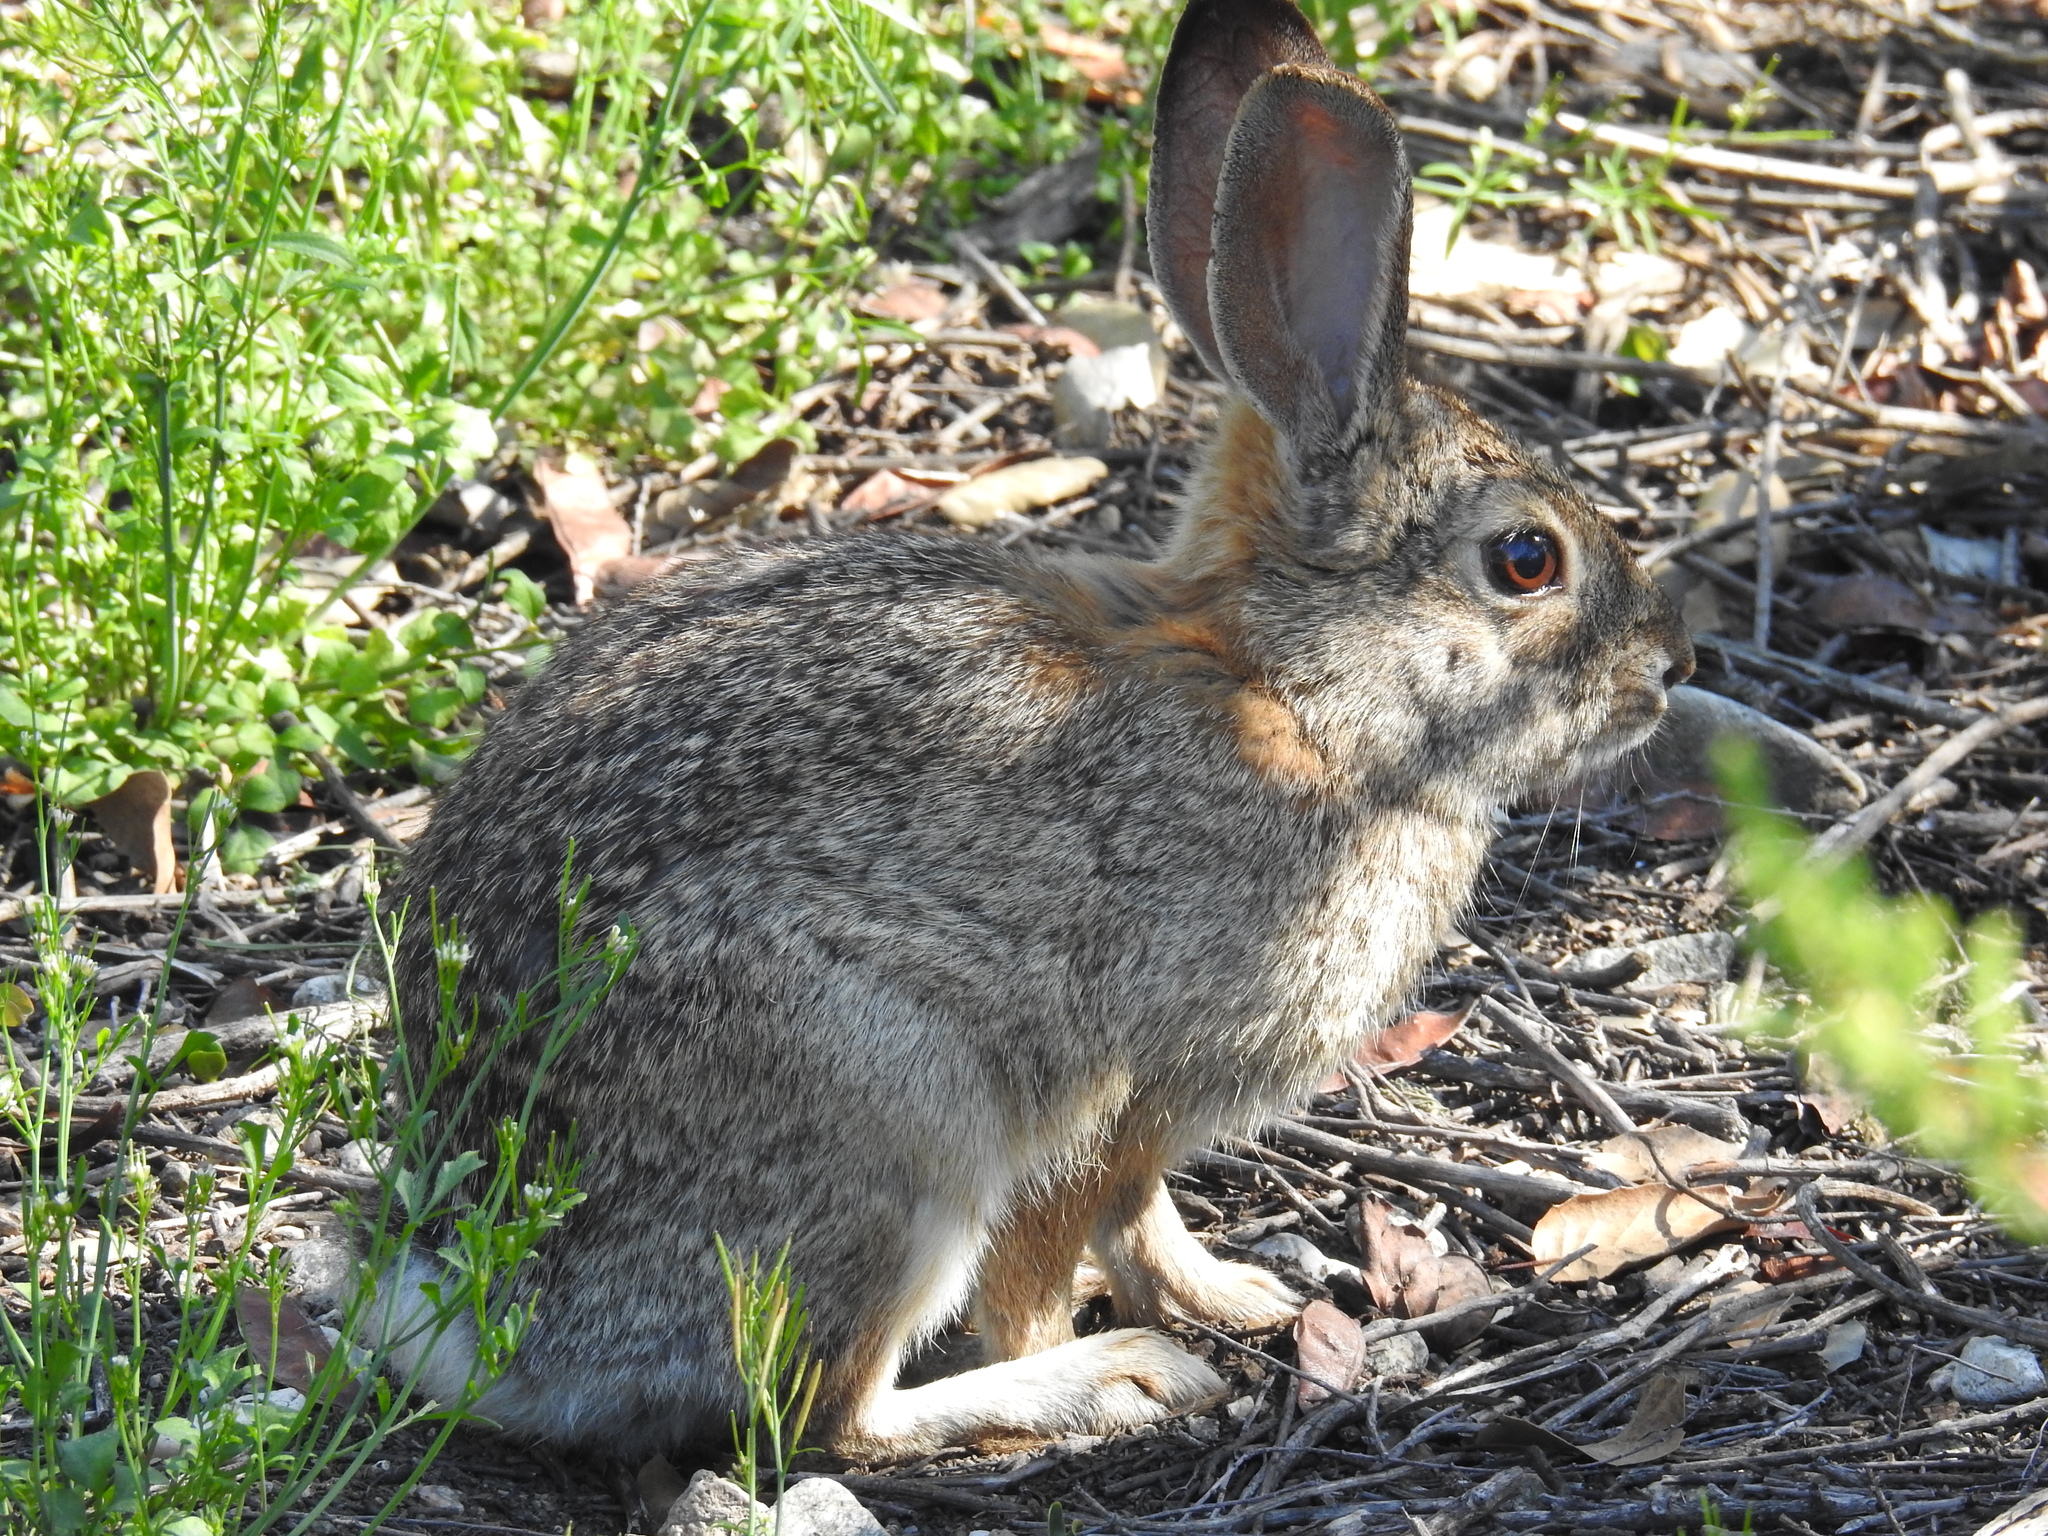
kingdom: Animalia
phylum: Chordata
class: Mammalia
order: Lagomorpha
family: Leporidae
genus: Sylvilagus
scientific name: Sylvilagus audubonii
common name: Desert cottontail
